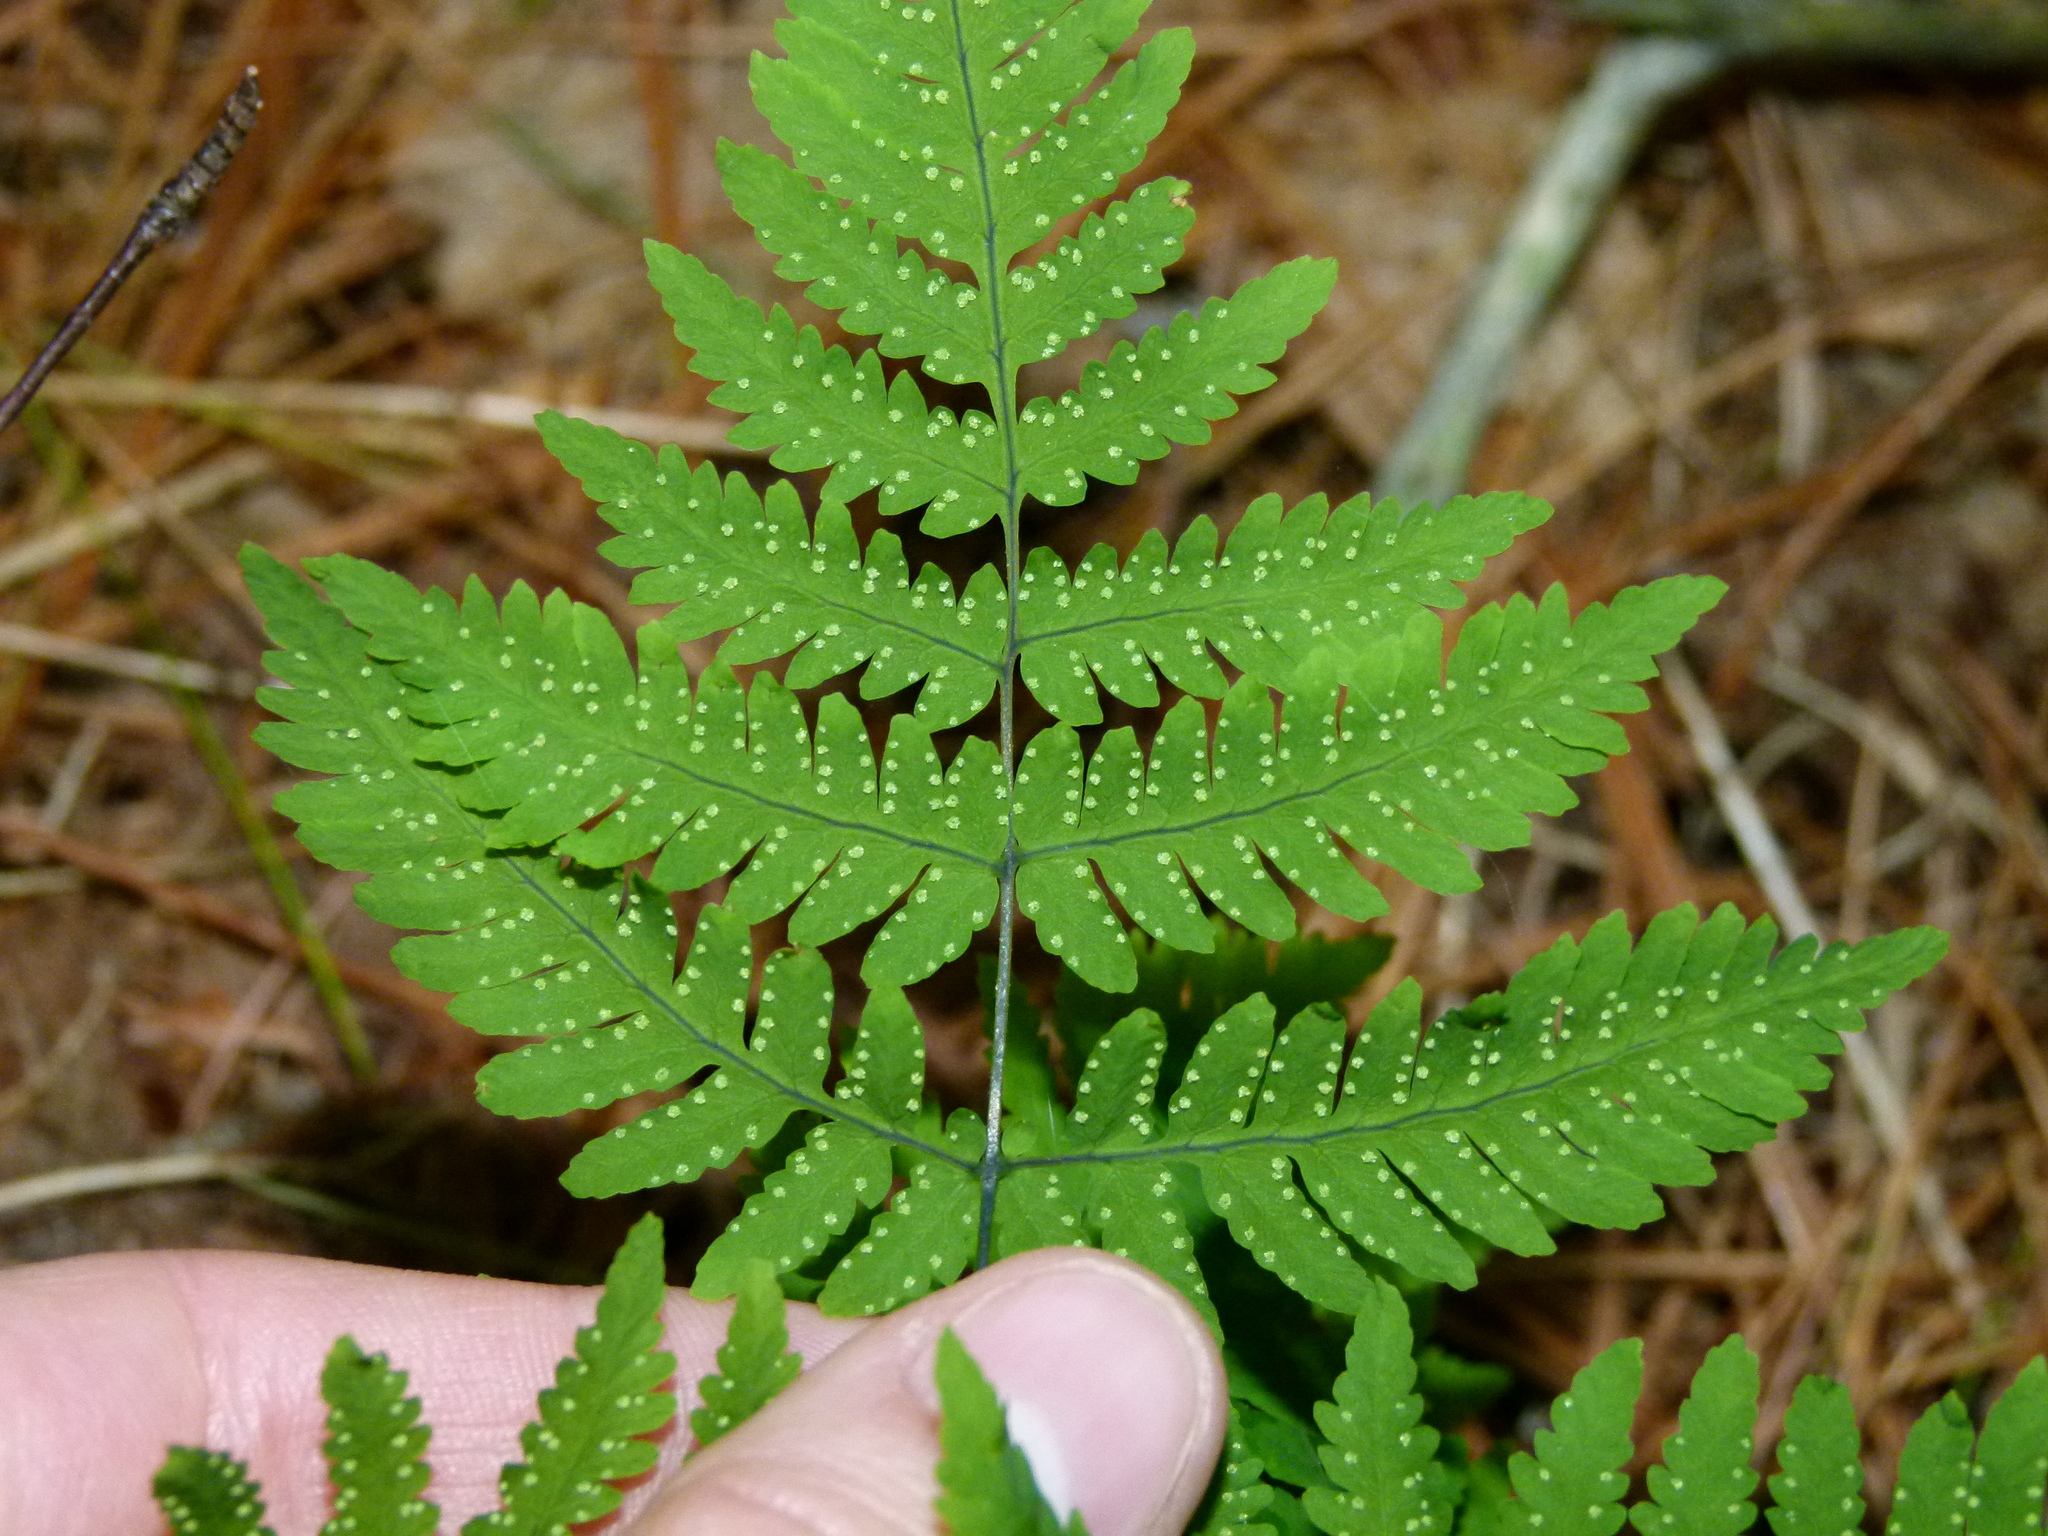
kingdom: Plantae
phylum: Tracheophyta
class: Polypodiopsida
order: Polypodiales
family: Cystopteridaceae
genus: Gymnocarpium
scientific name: Gymnocarpium dryopteris
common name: Oak fern
